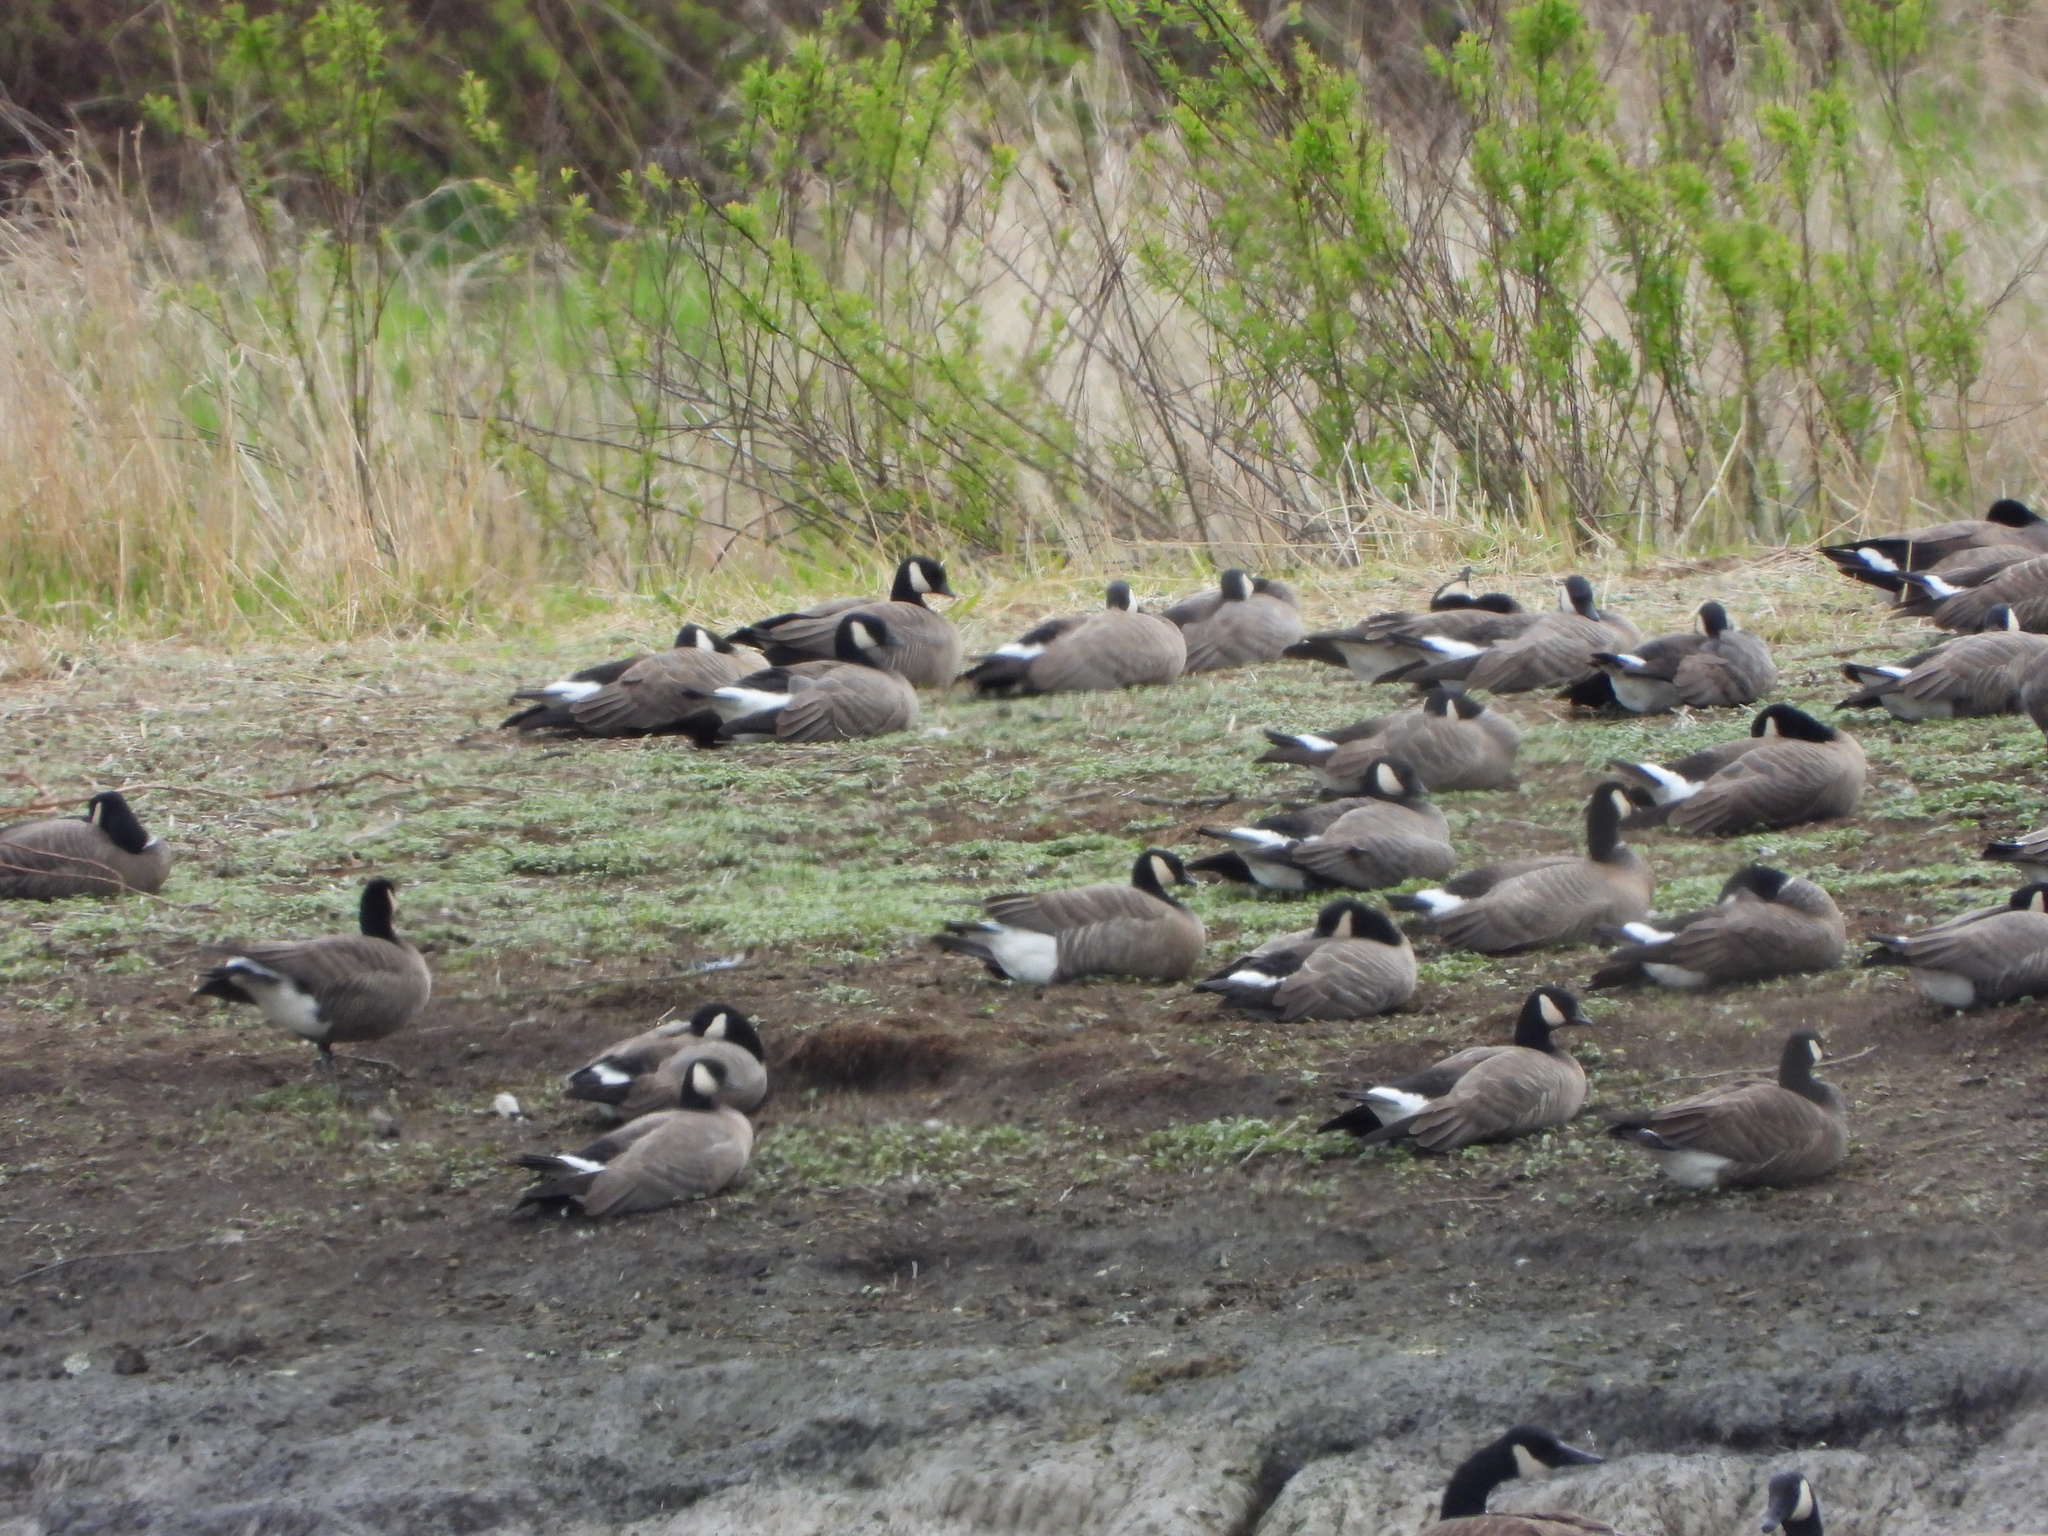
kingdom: Animalia
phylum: Chordata
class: Aves
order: Anseriformes
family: Anatidae
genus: Branta
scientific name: Branta hutchinsii
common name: Cackling goose
